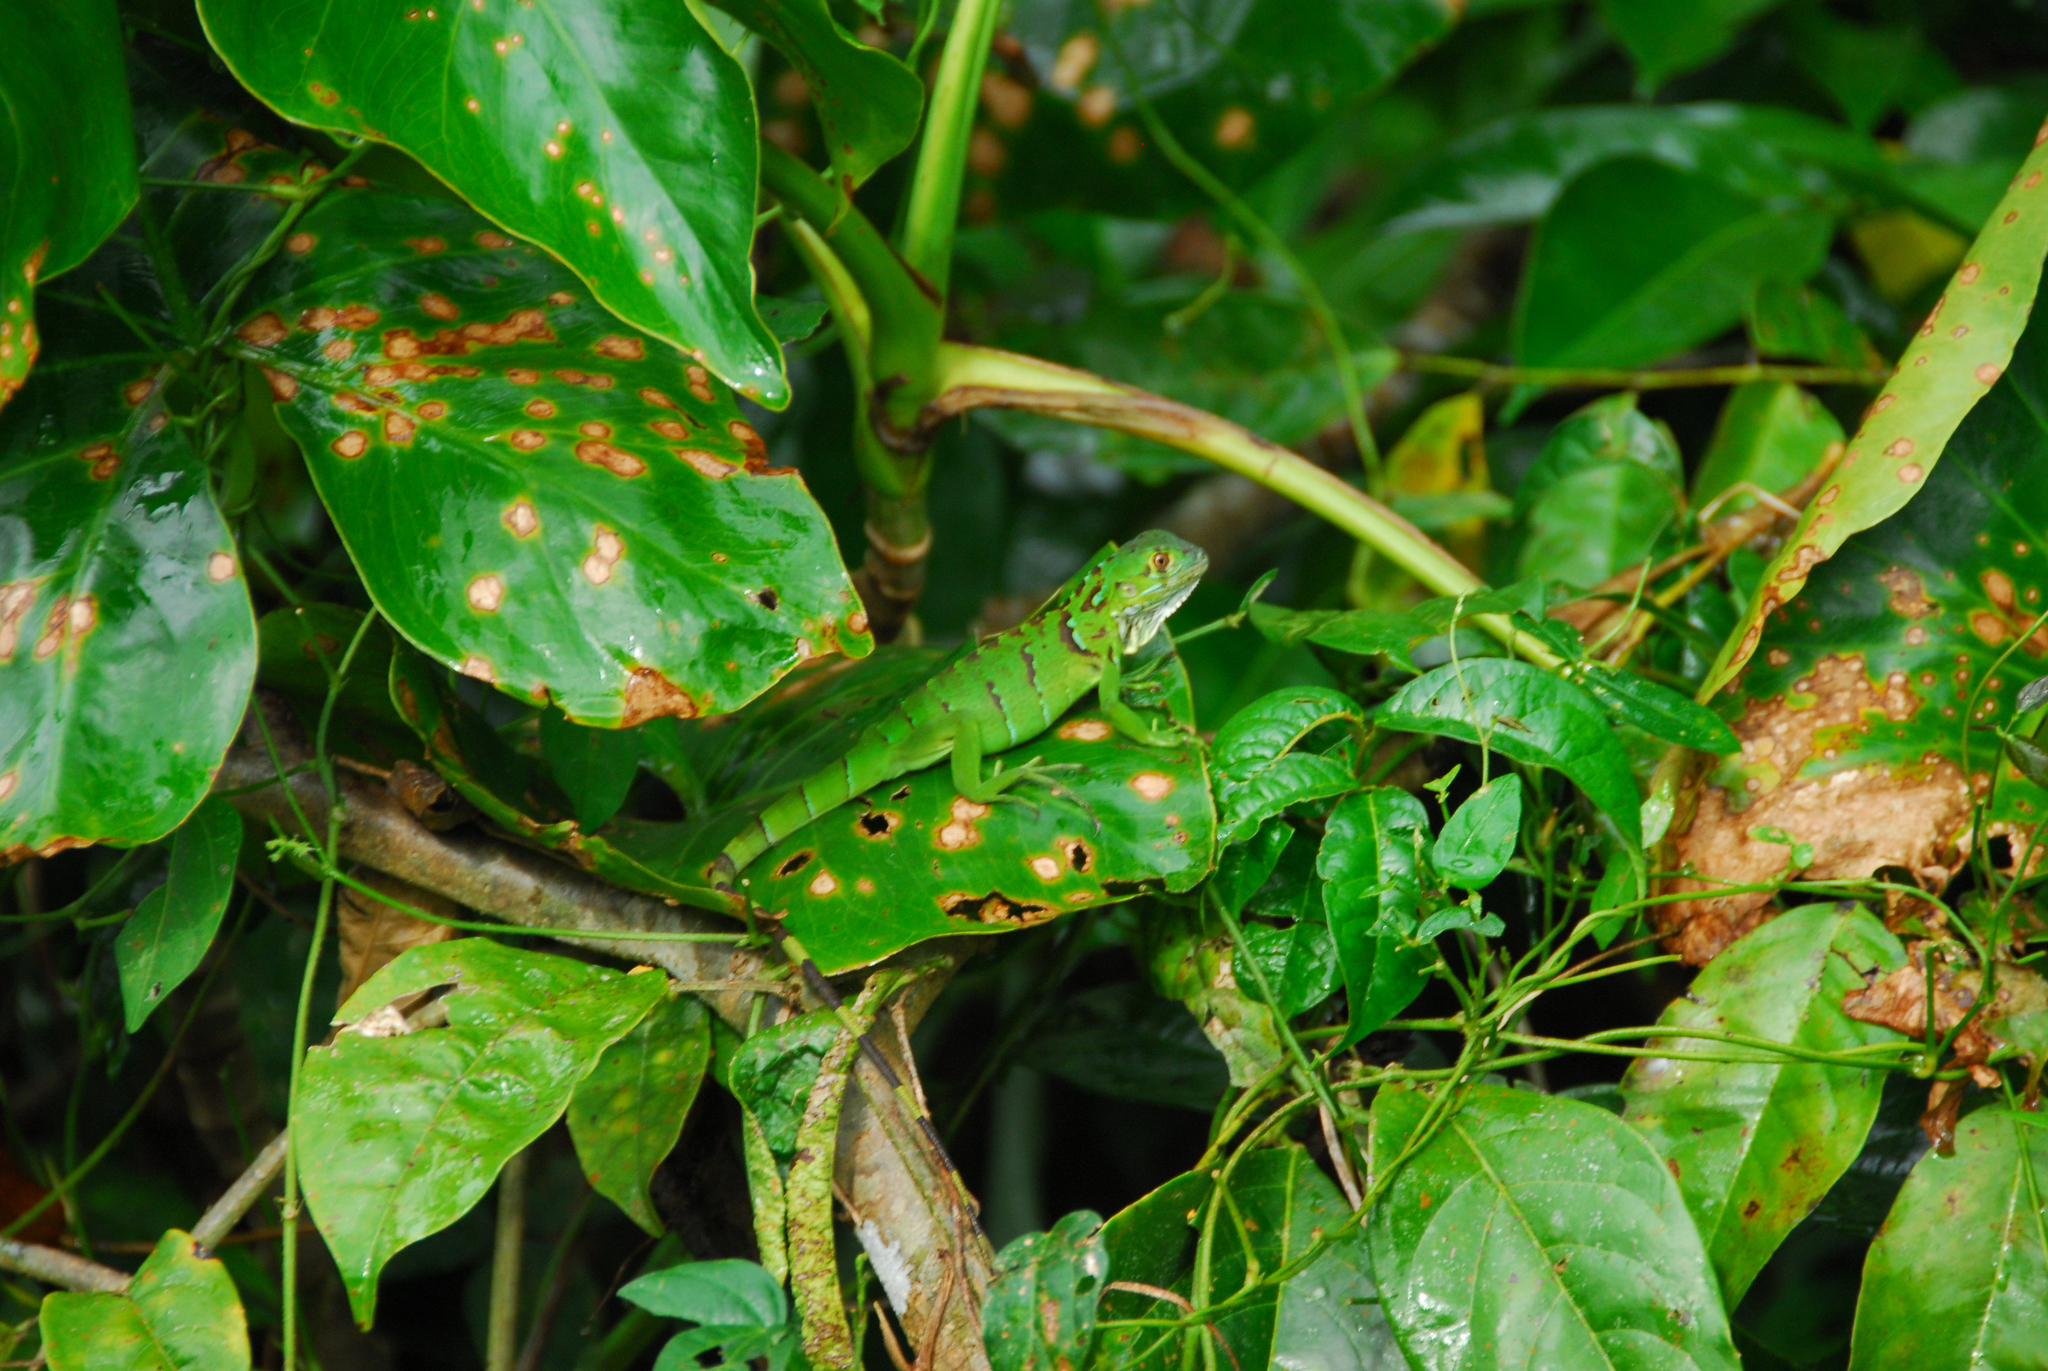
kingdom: Animalia
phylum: Chordata
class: Squamata
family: Iguanidae
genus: Iguana
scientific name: Iguana iguana
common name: Green iguana
